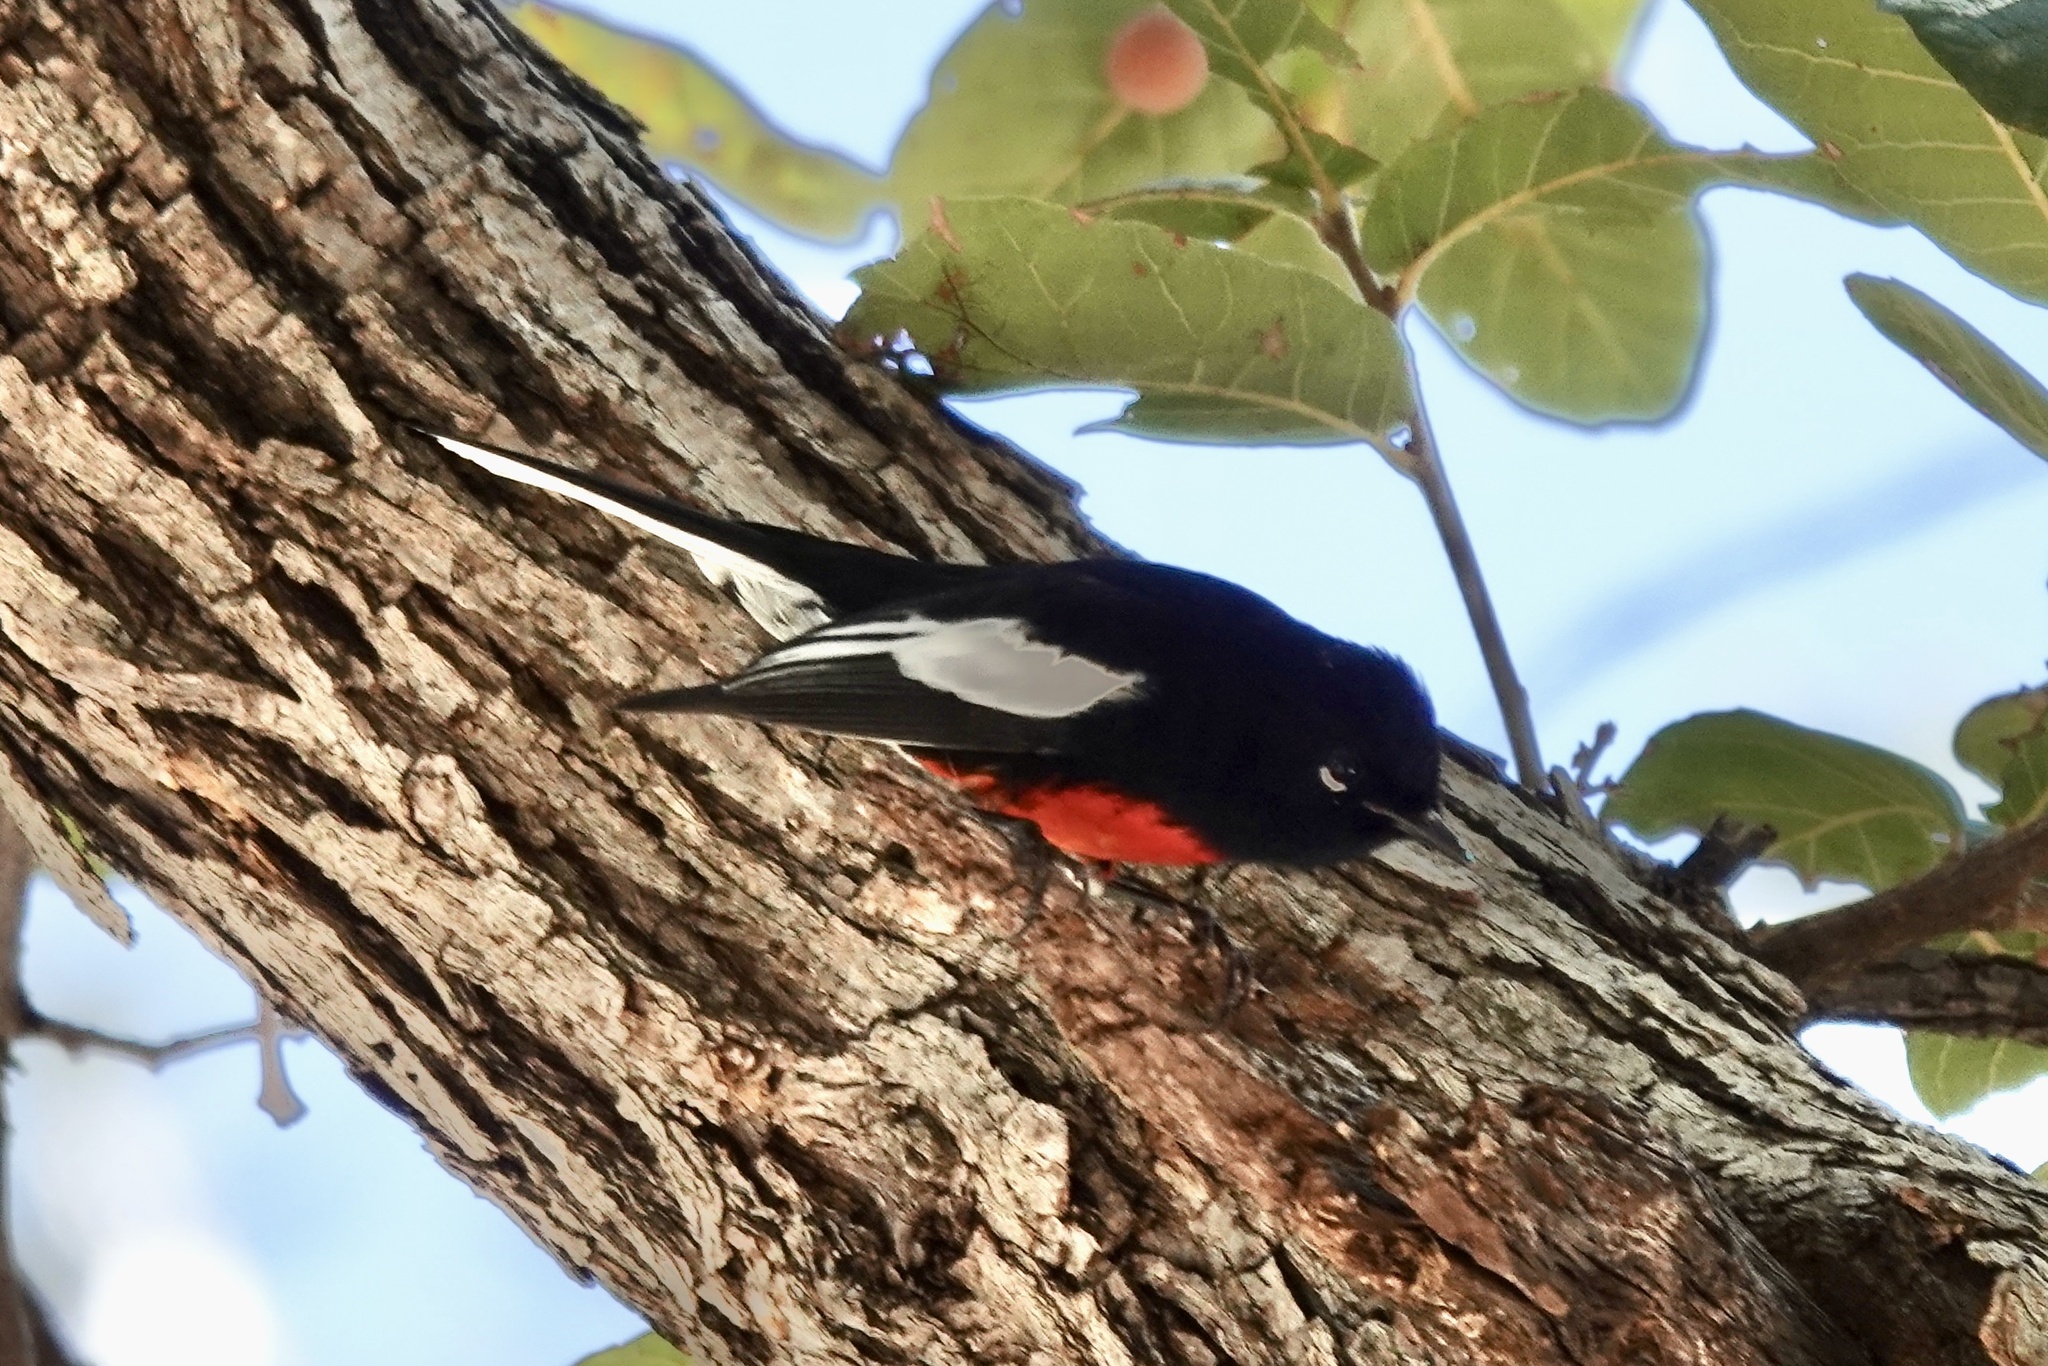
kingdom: Animalia
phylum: Chordata
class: Aves
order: Passeriformes
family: Parulidae
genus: Myioborus
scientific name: Myioborus pictus
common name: Painted whitestart
